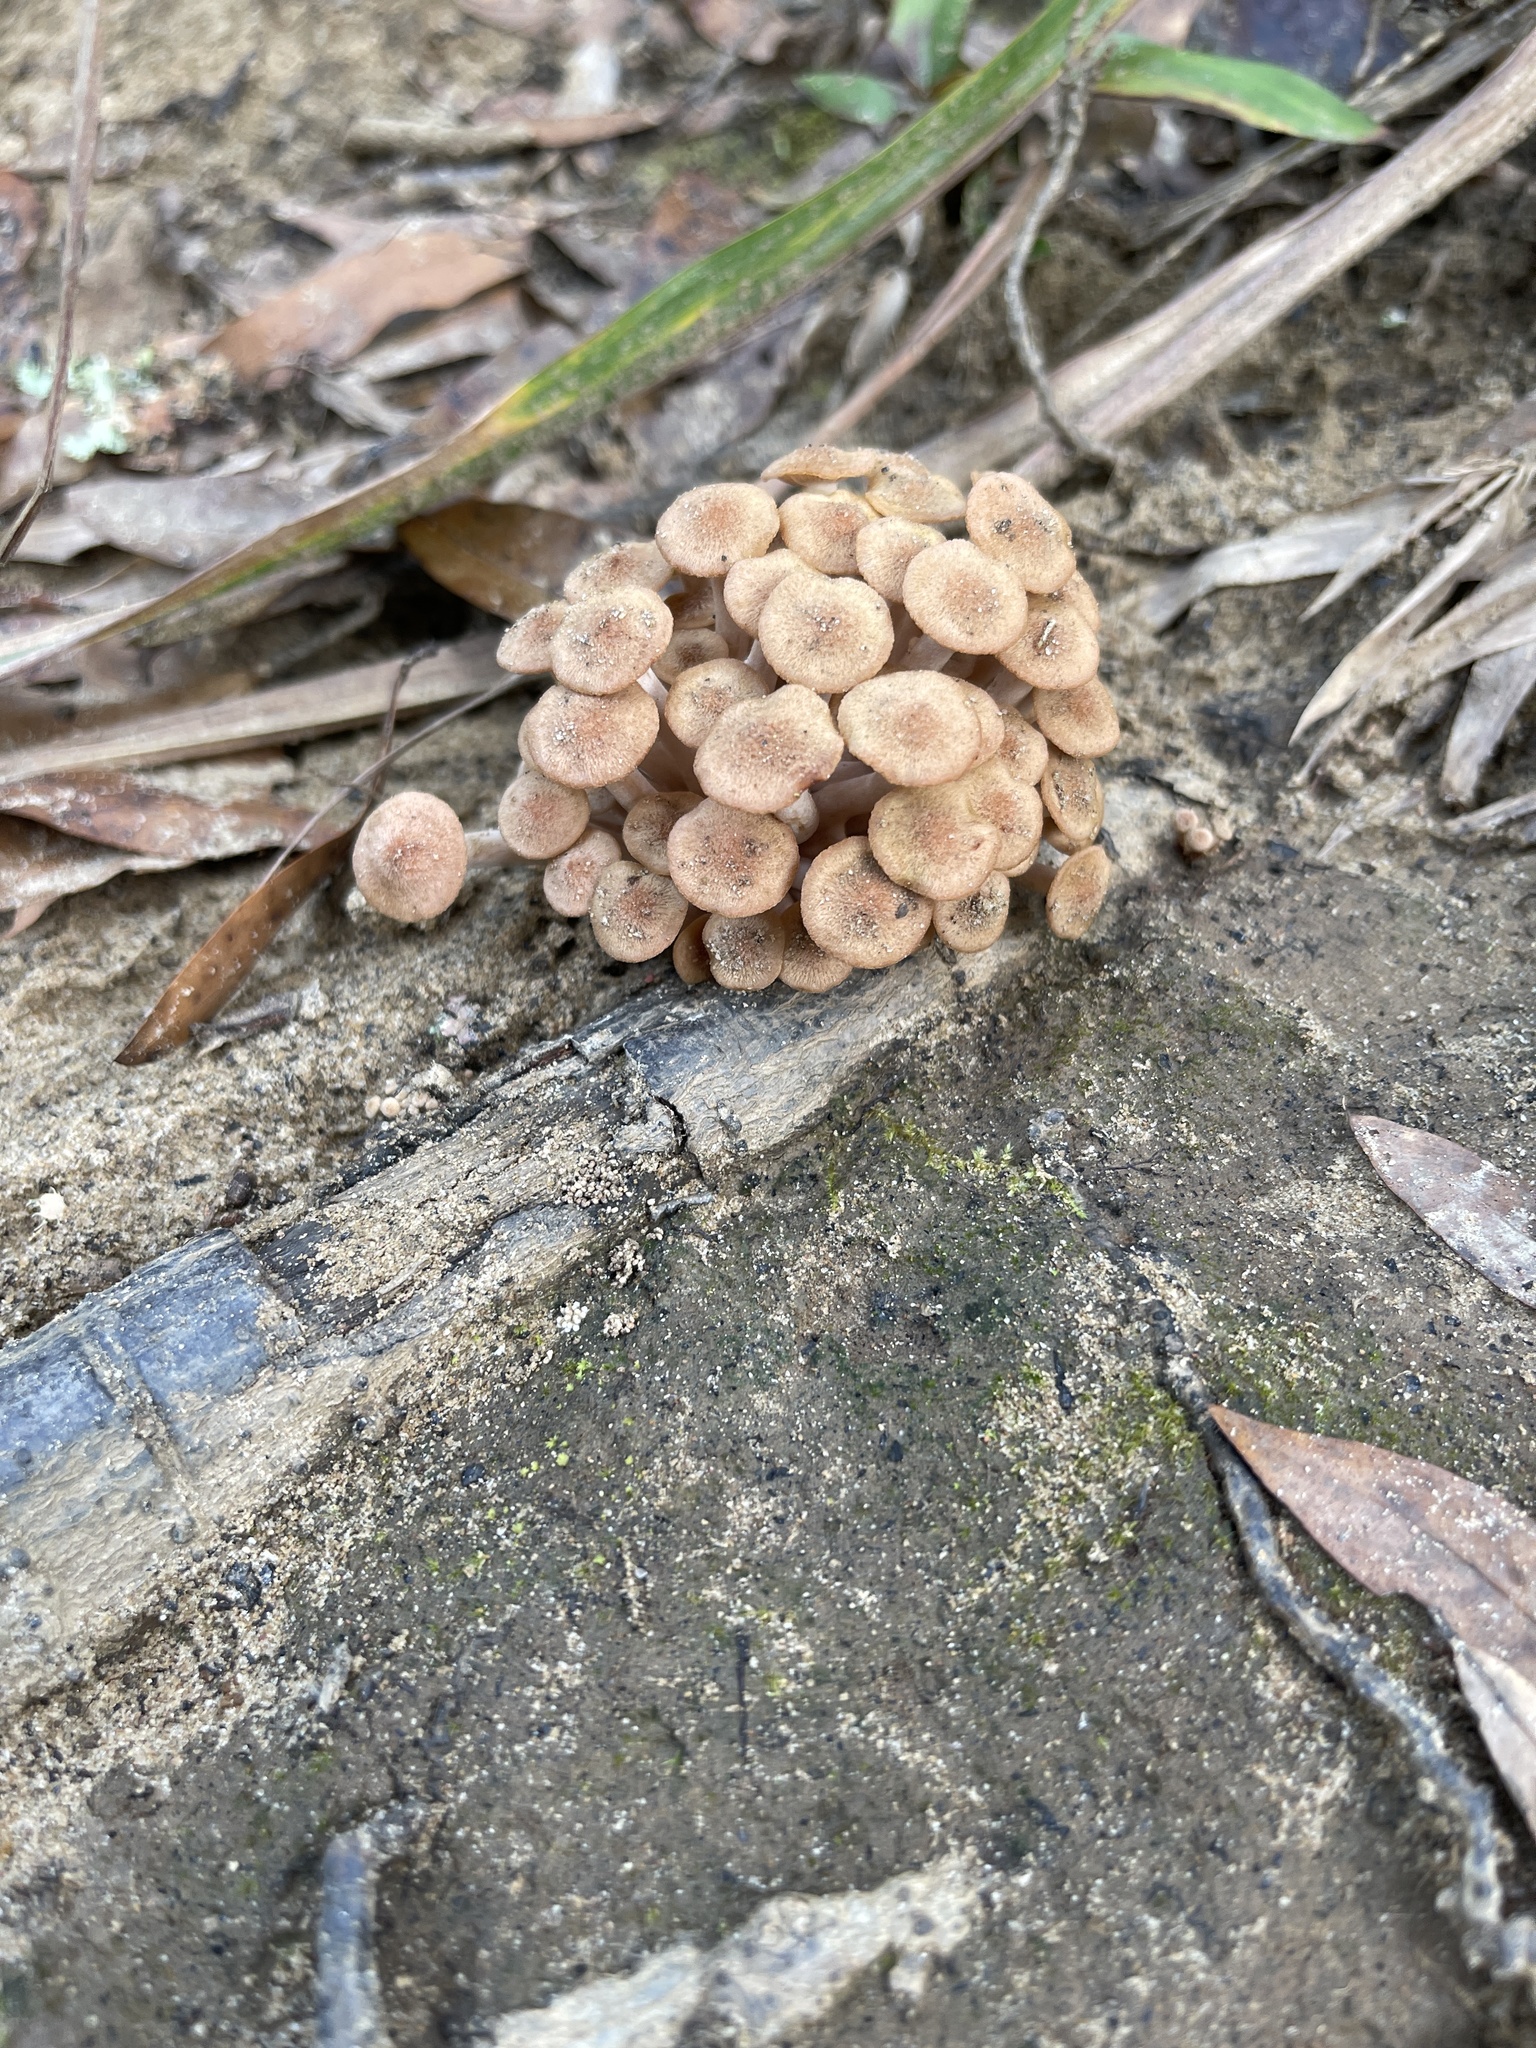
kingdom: Fungi
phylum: Basidiomycota
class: Agaricomycetes
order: Agaricales
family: Physalacriaceae
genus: Desarmillaria
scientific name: Desarmillaria caespitosa
